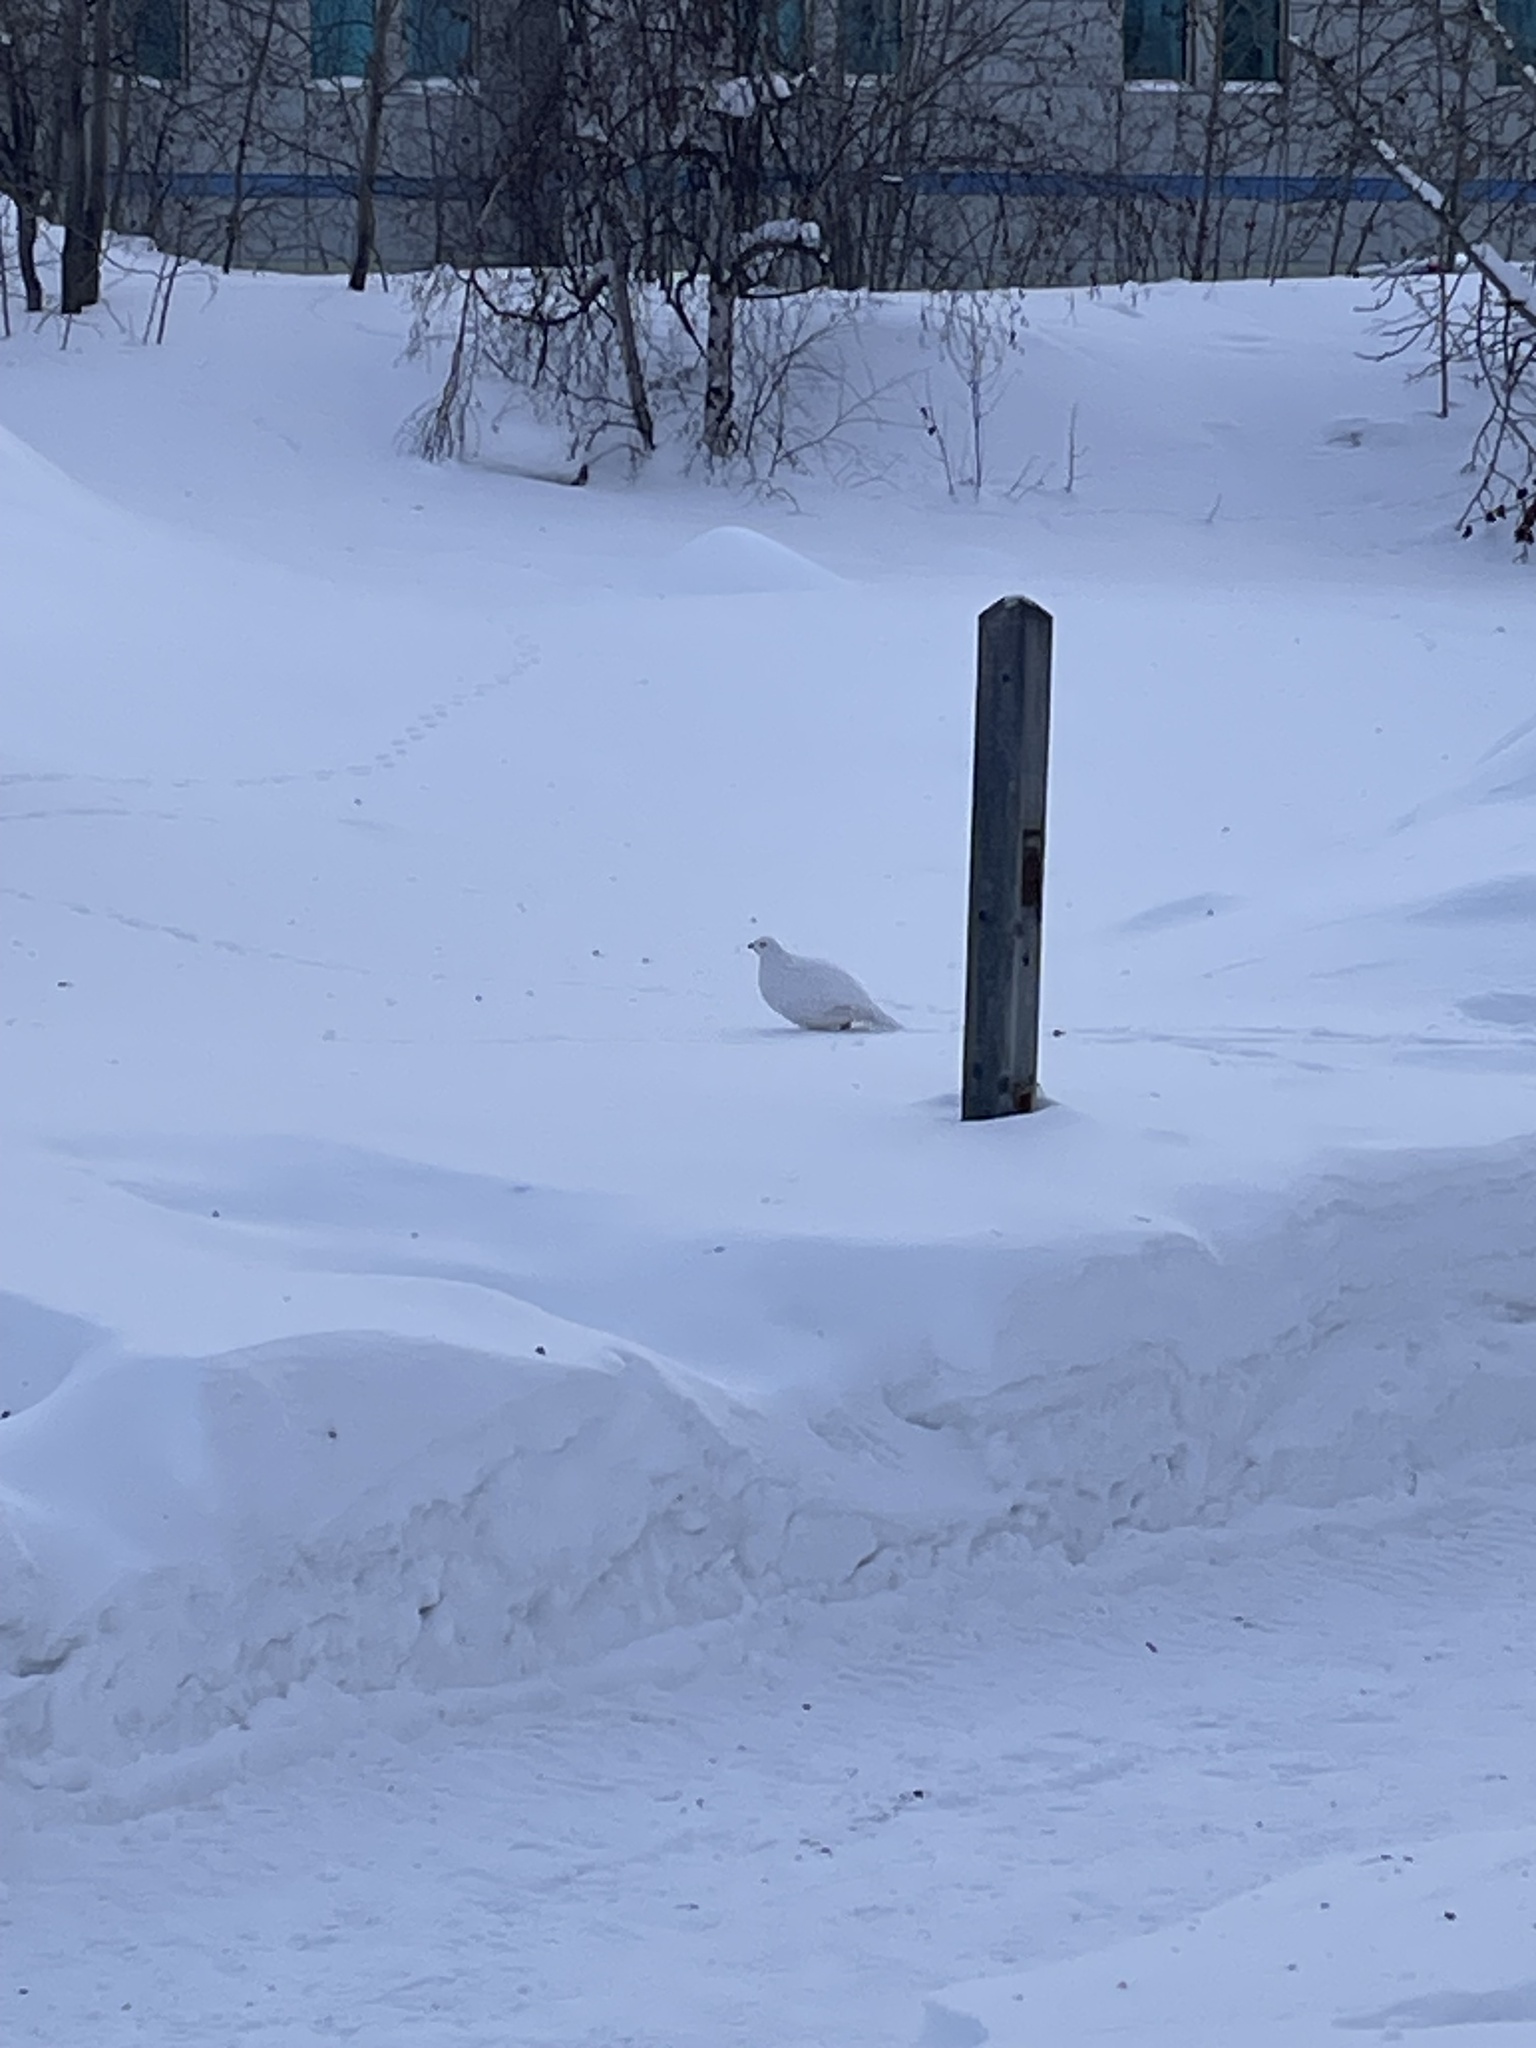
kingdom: Animalia
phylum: Chordata
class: Aves
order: Galliformes
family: Phasianidae
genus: Lagopus
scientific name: Lagopus lagopus
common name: Willow ptarmigan
